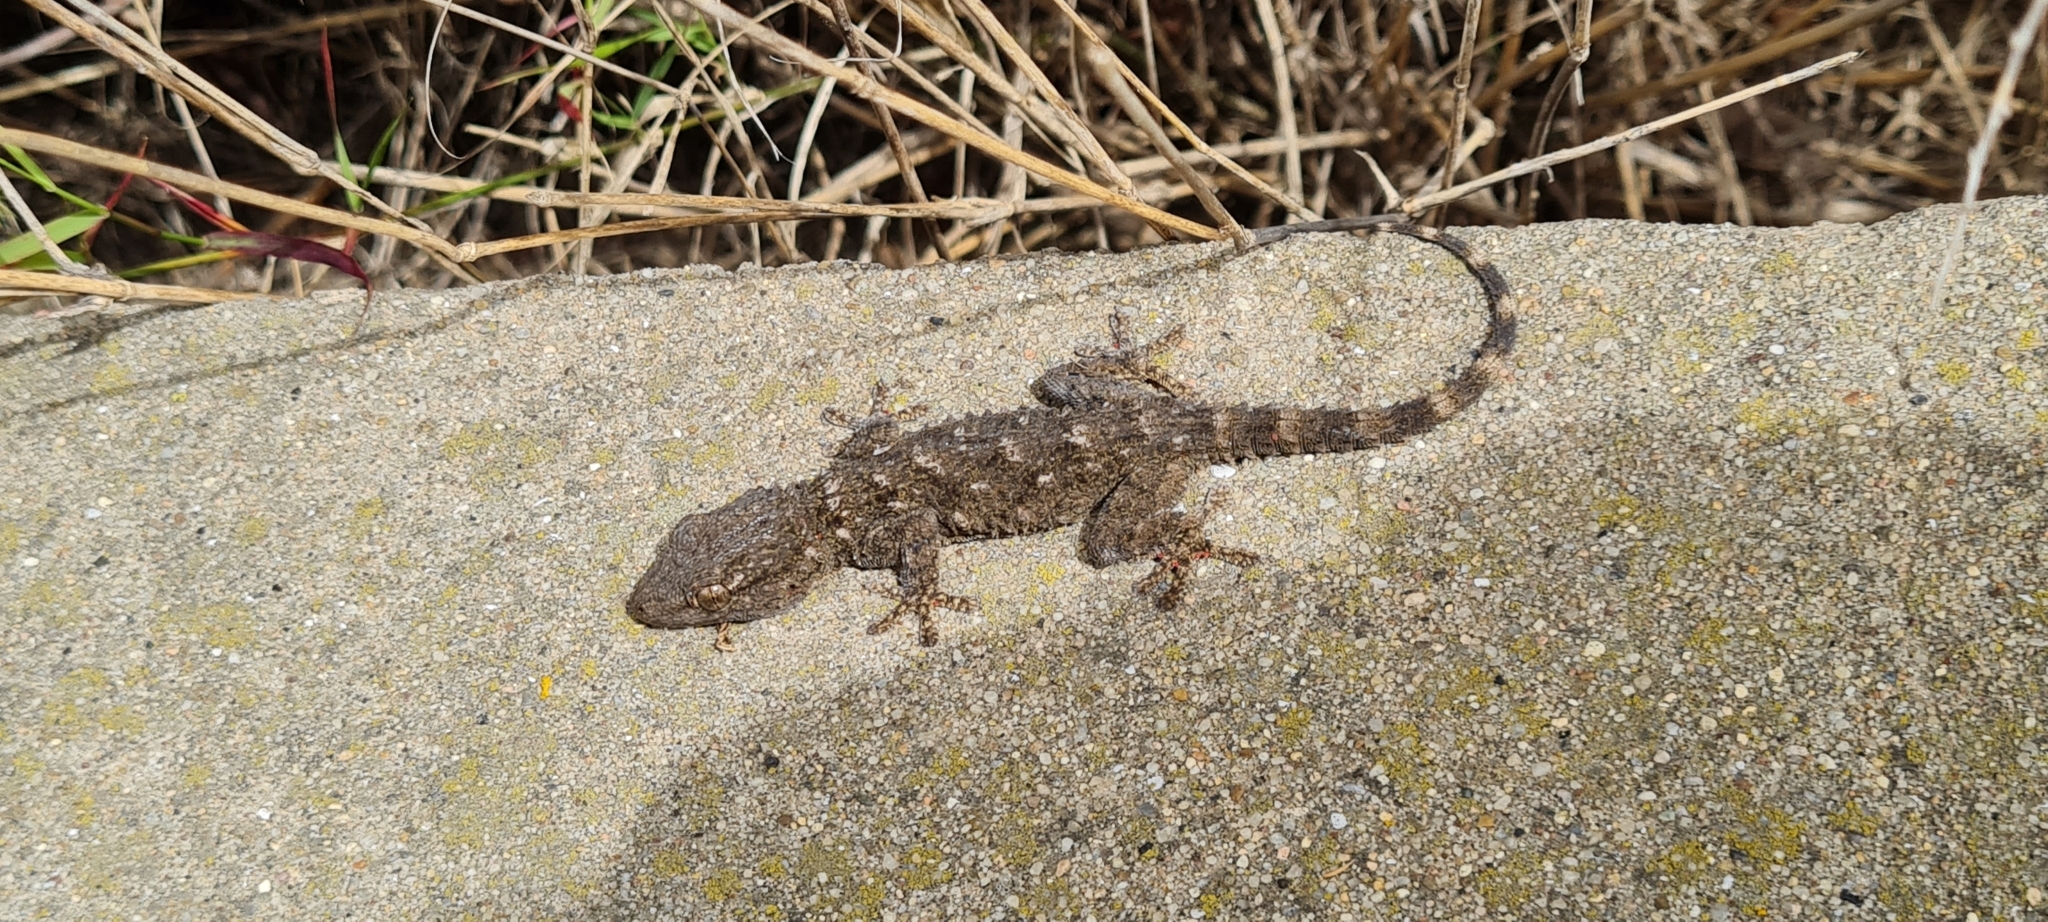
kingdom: Animalia
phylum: Chordata
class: Squamata
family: Phyllodactylidae
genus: Tarentola
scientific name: Tarentola mauritanica
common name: Moorish gecko
